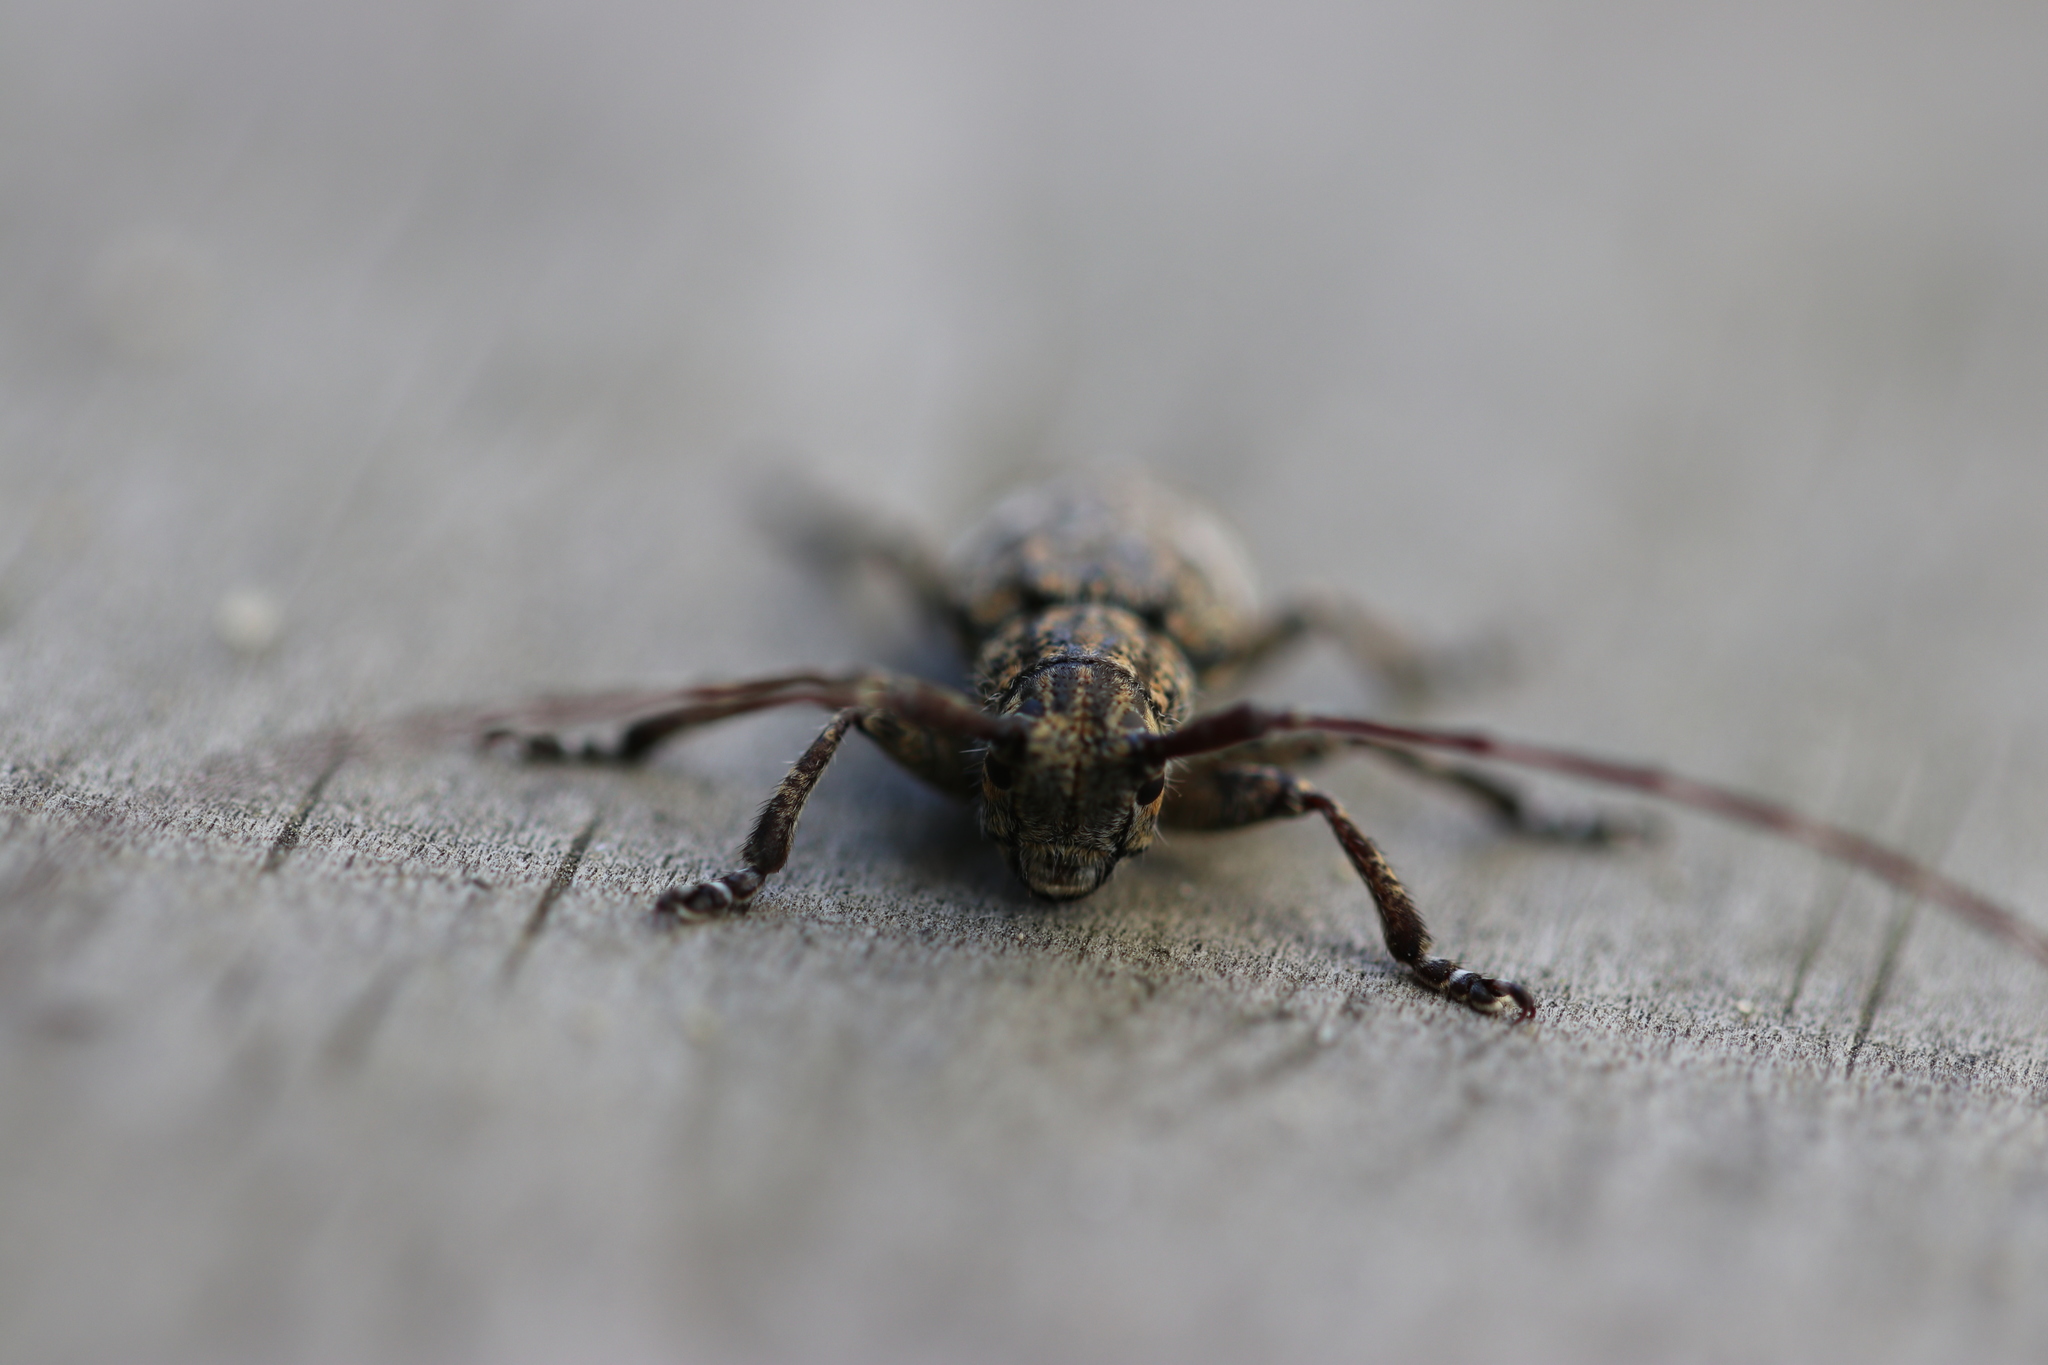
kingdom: Animalia
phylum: Arthropoda
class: Insecta
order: Coleoptera
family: Cerambycidae
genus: Mesosa
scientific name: Mesosa nebulosa
